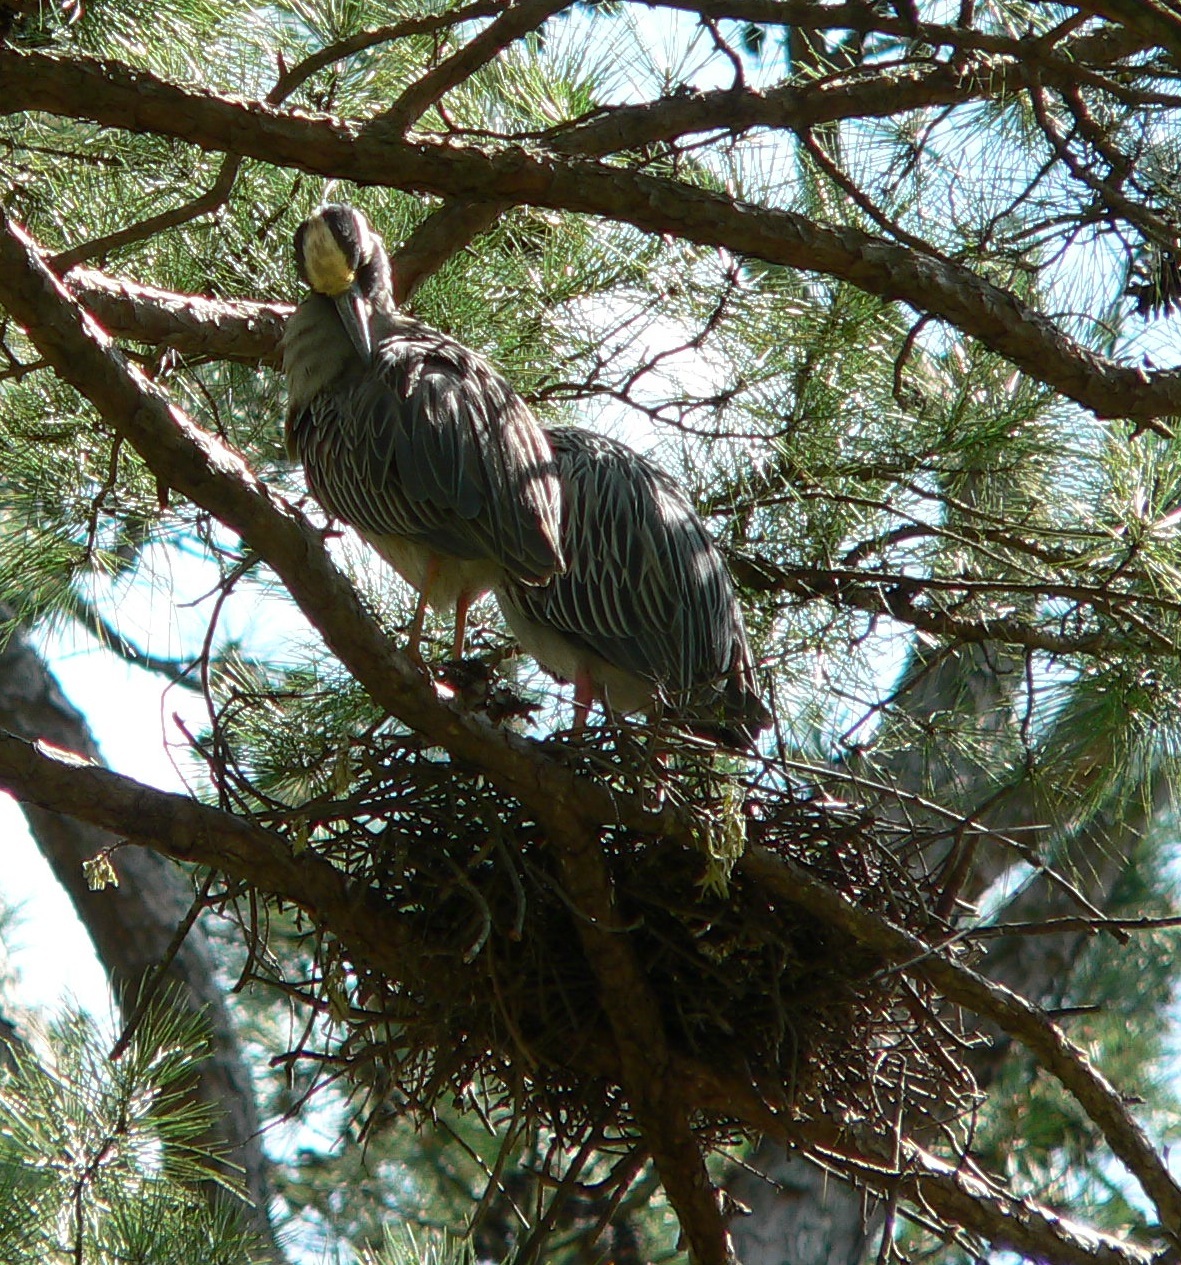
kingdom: Animalia
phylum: Chordata
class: Aves
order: Pelecaniformes
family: Ardeidae
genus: Nyctanassa
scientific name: Nyctanassa violacea
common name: Yellow-crowned night heron
